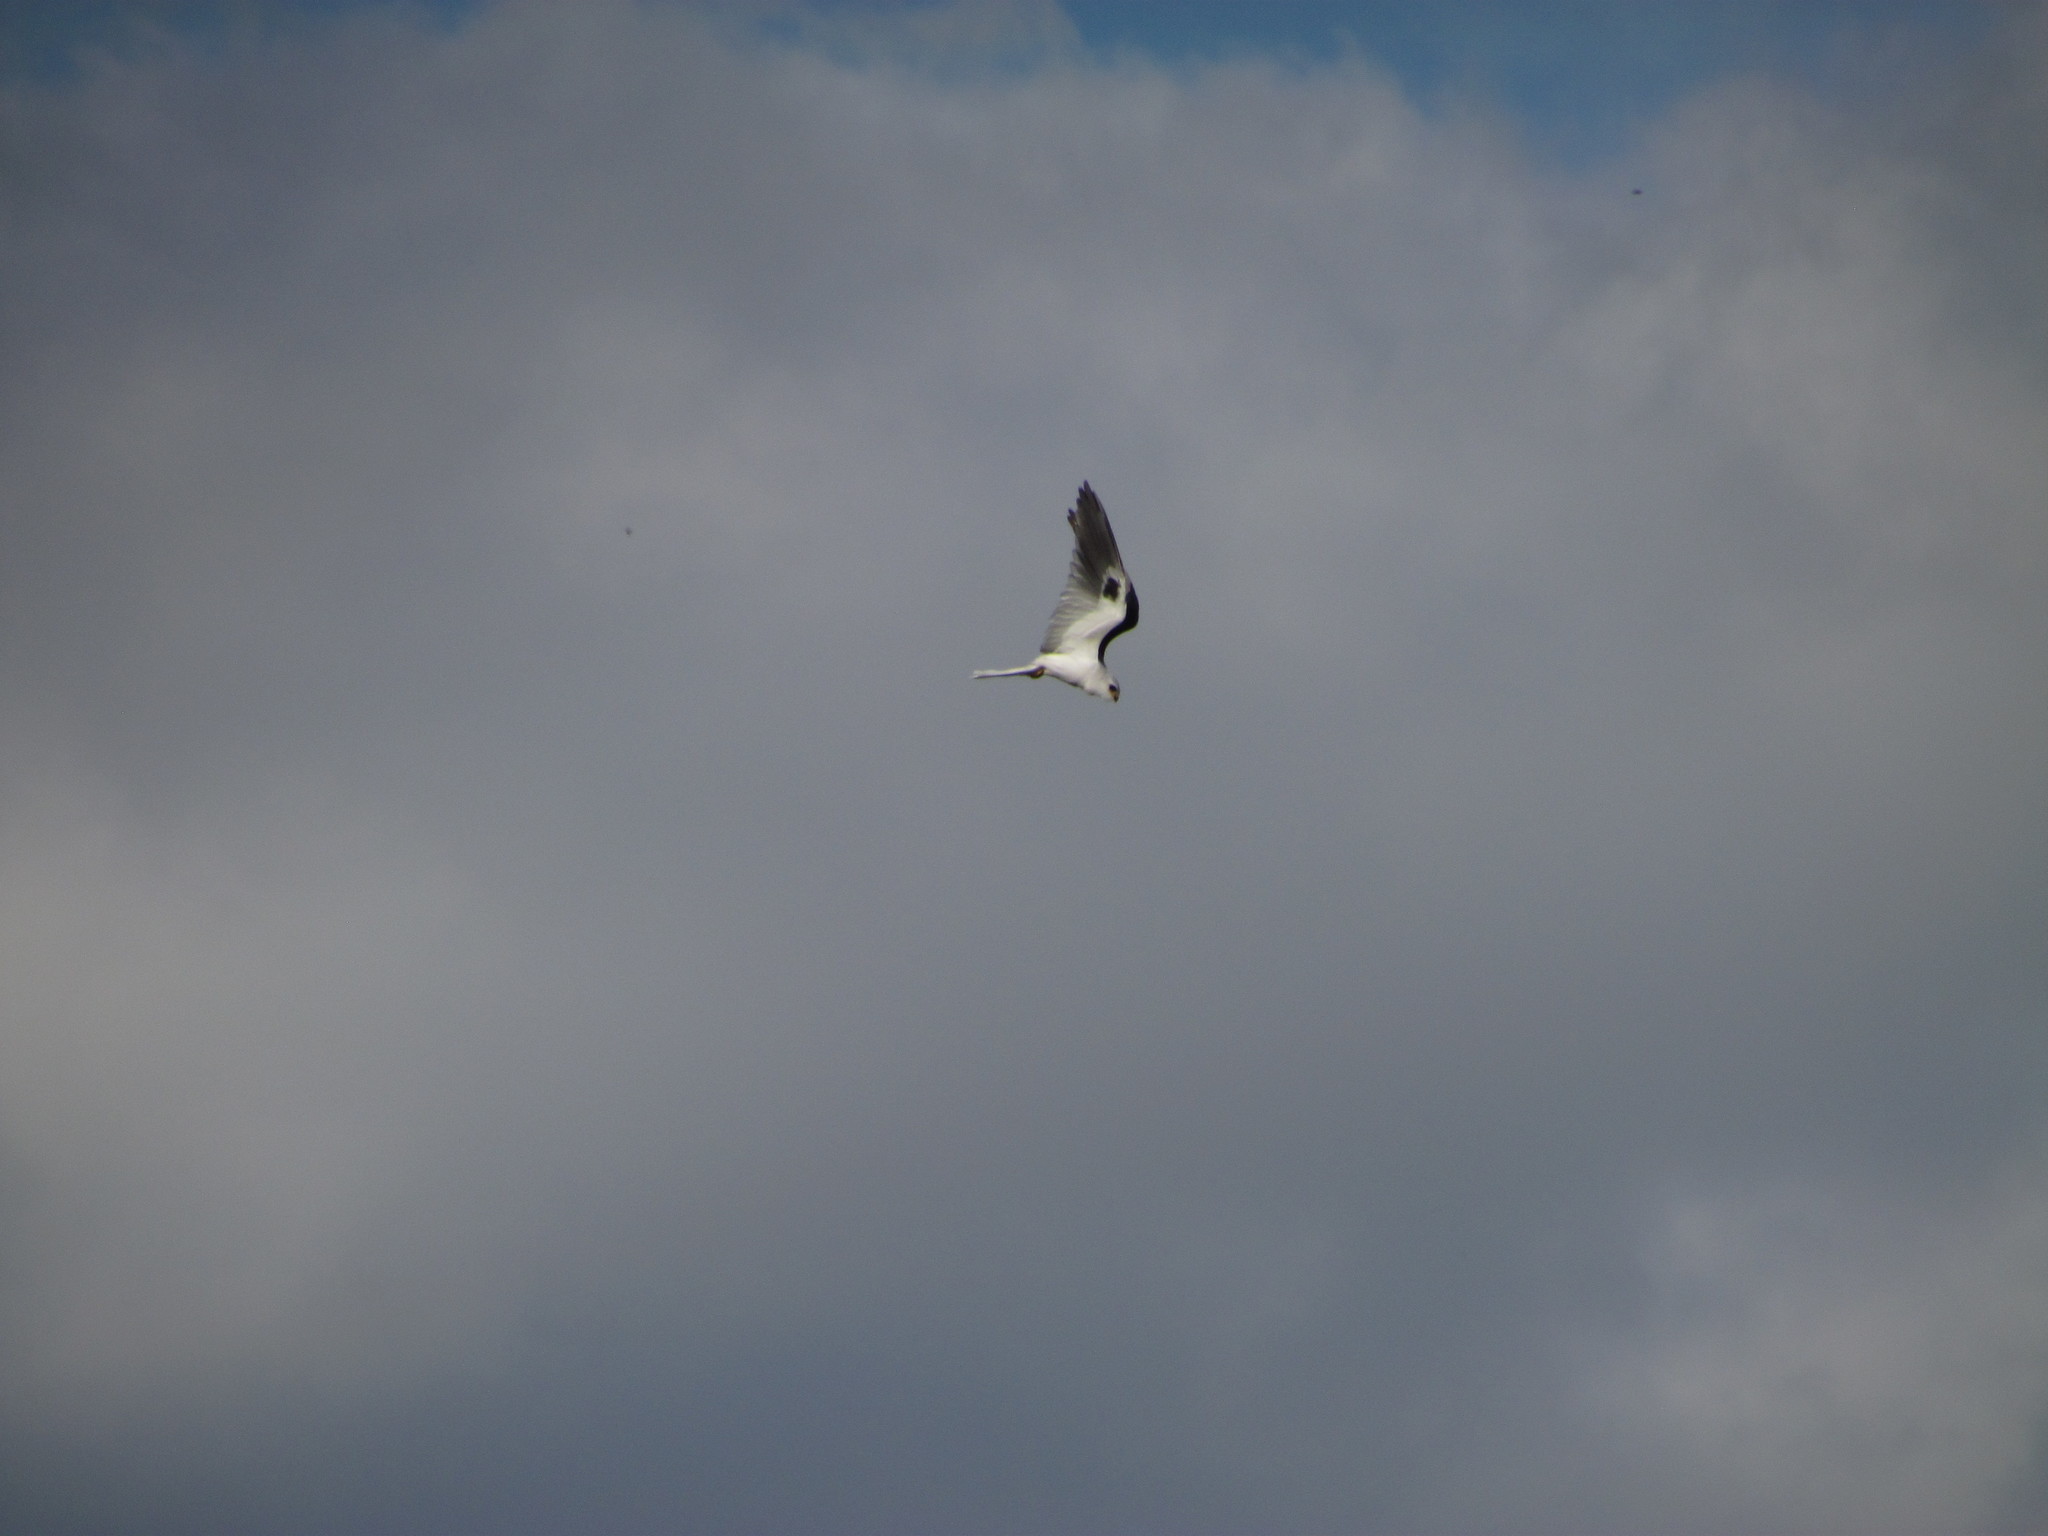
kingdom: Animalia
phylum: Chordata
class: Aves
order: Accipitriformes
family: Accipitridae
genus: Elanus
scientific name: Elanus leucurus
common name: White-tailed kite
